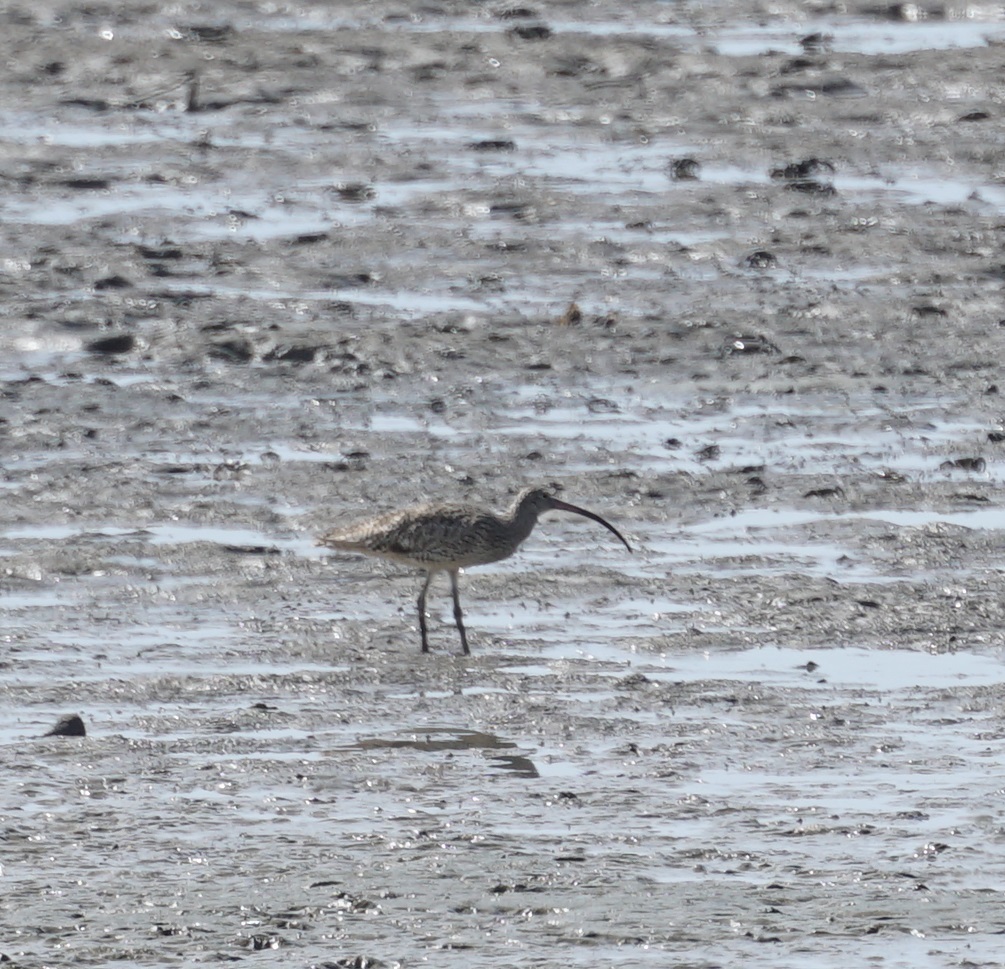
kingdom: Animalia
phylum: Chordata
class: Aves
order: Charadriiformes
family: Scolopacidae
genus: Numenius
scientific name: Numenius madagascariensis
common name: Far eastern curlew
